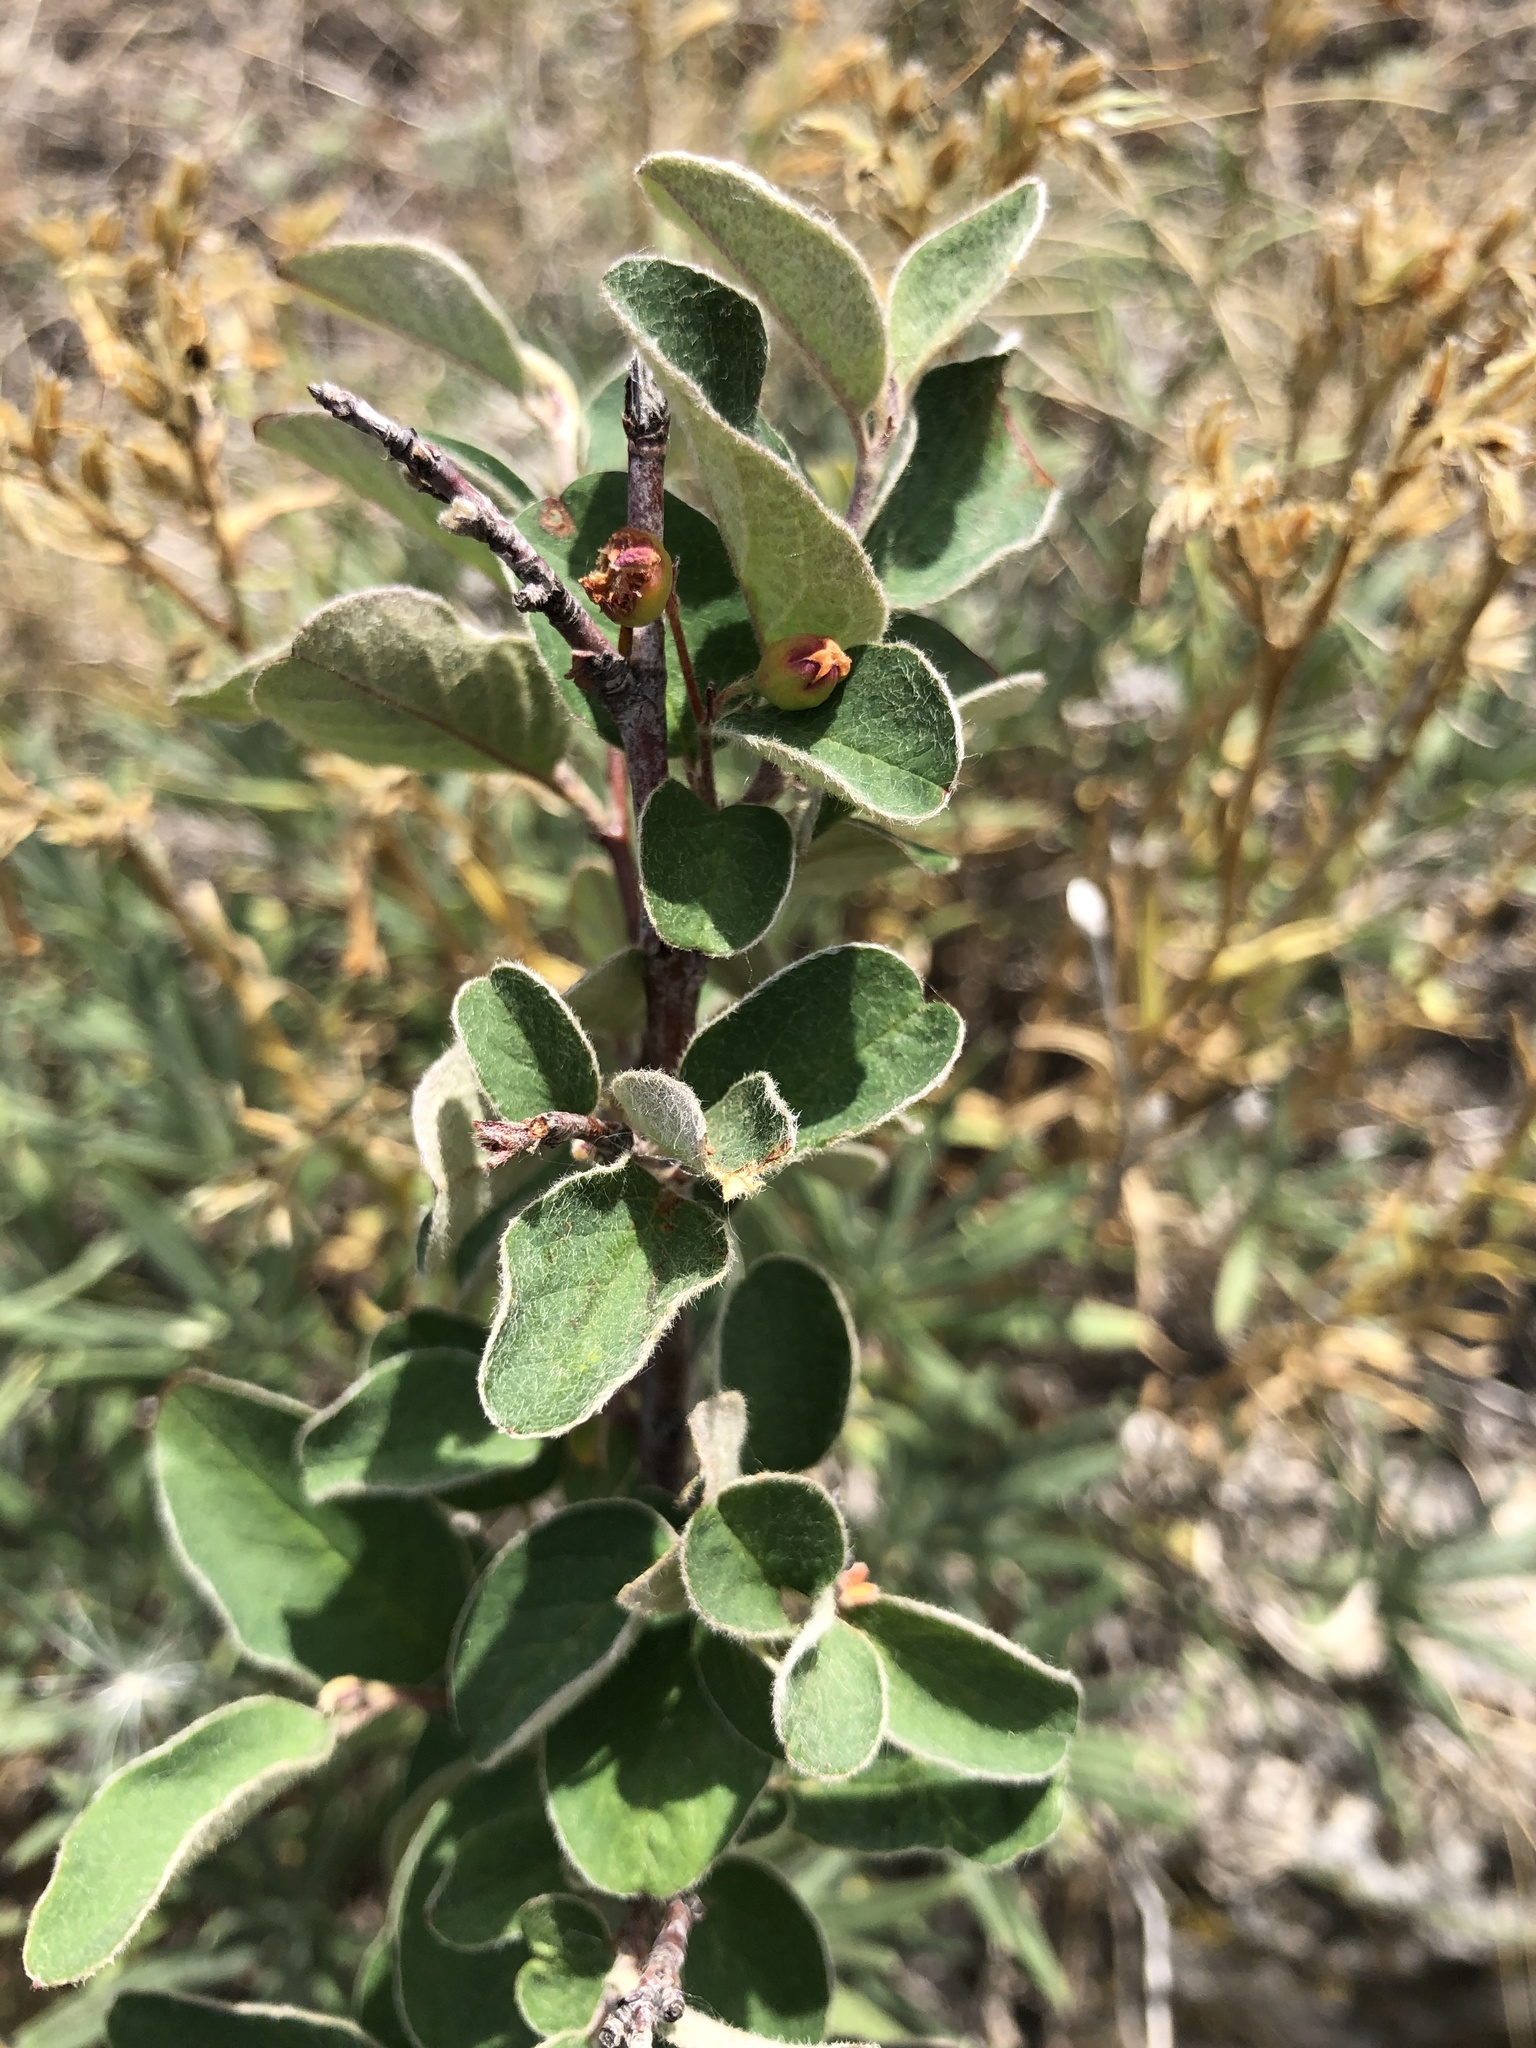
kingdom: Plantae
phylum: Tracheophyta
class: Magnoliopsida
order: Rosales
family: Rosaceae
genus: Cotoneaster
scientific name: Cotoneaster melanocarpus
